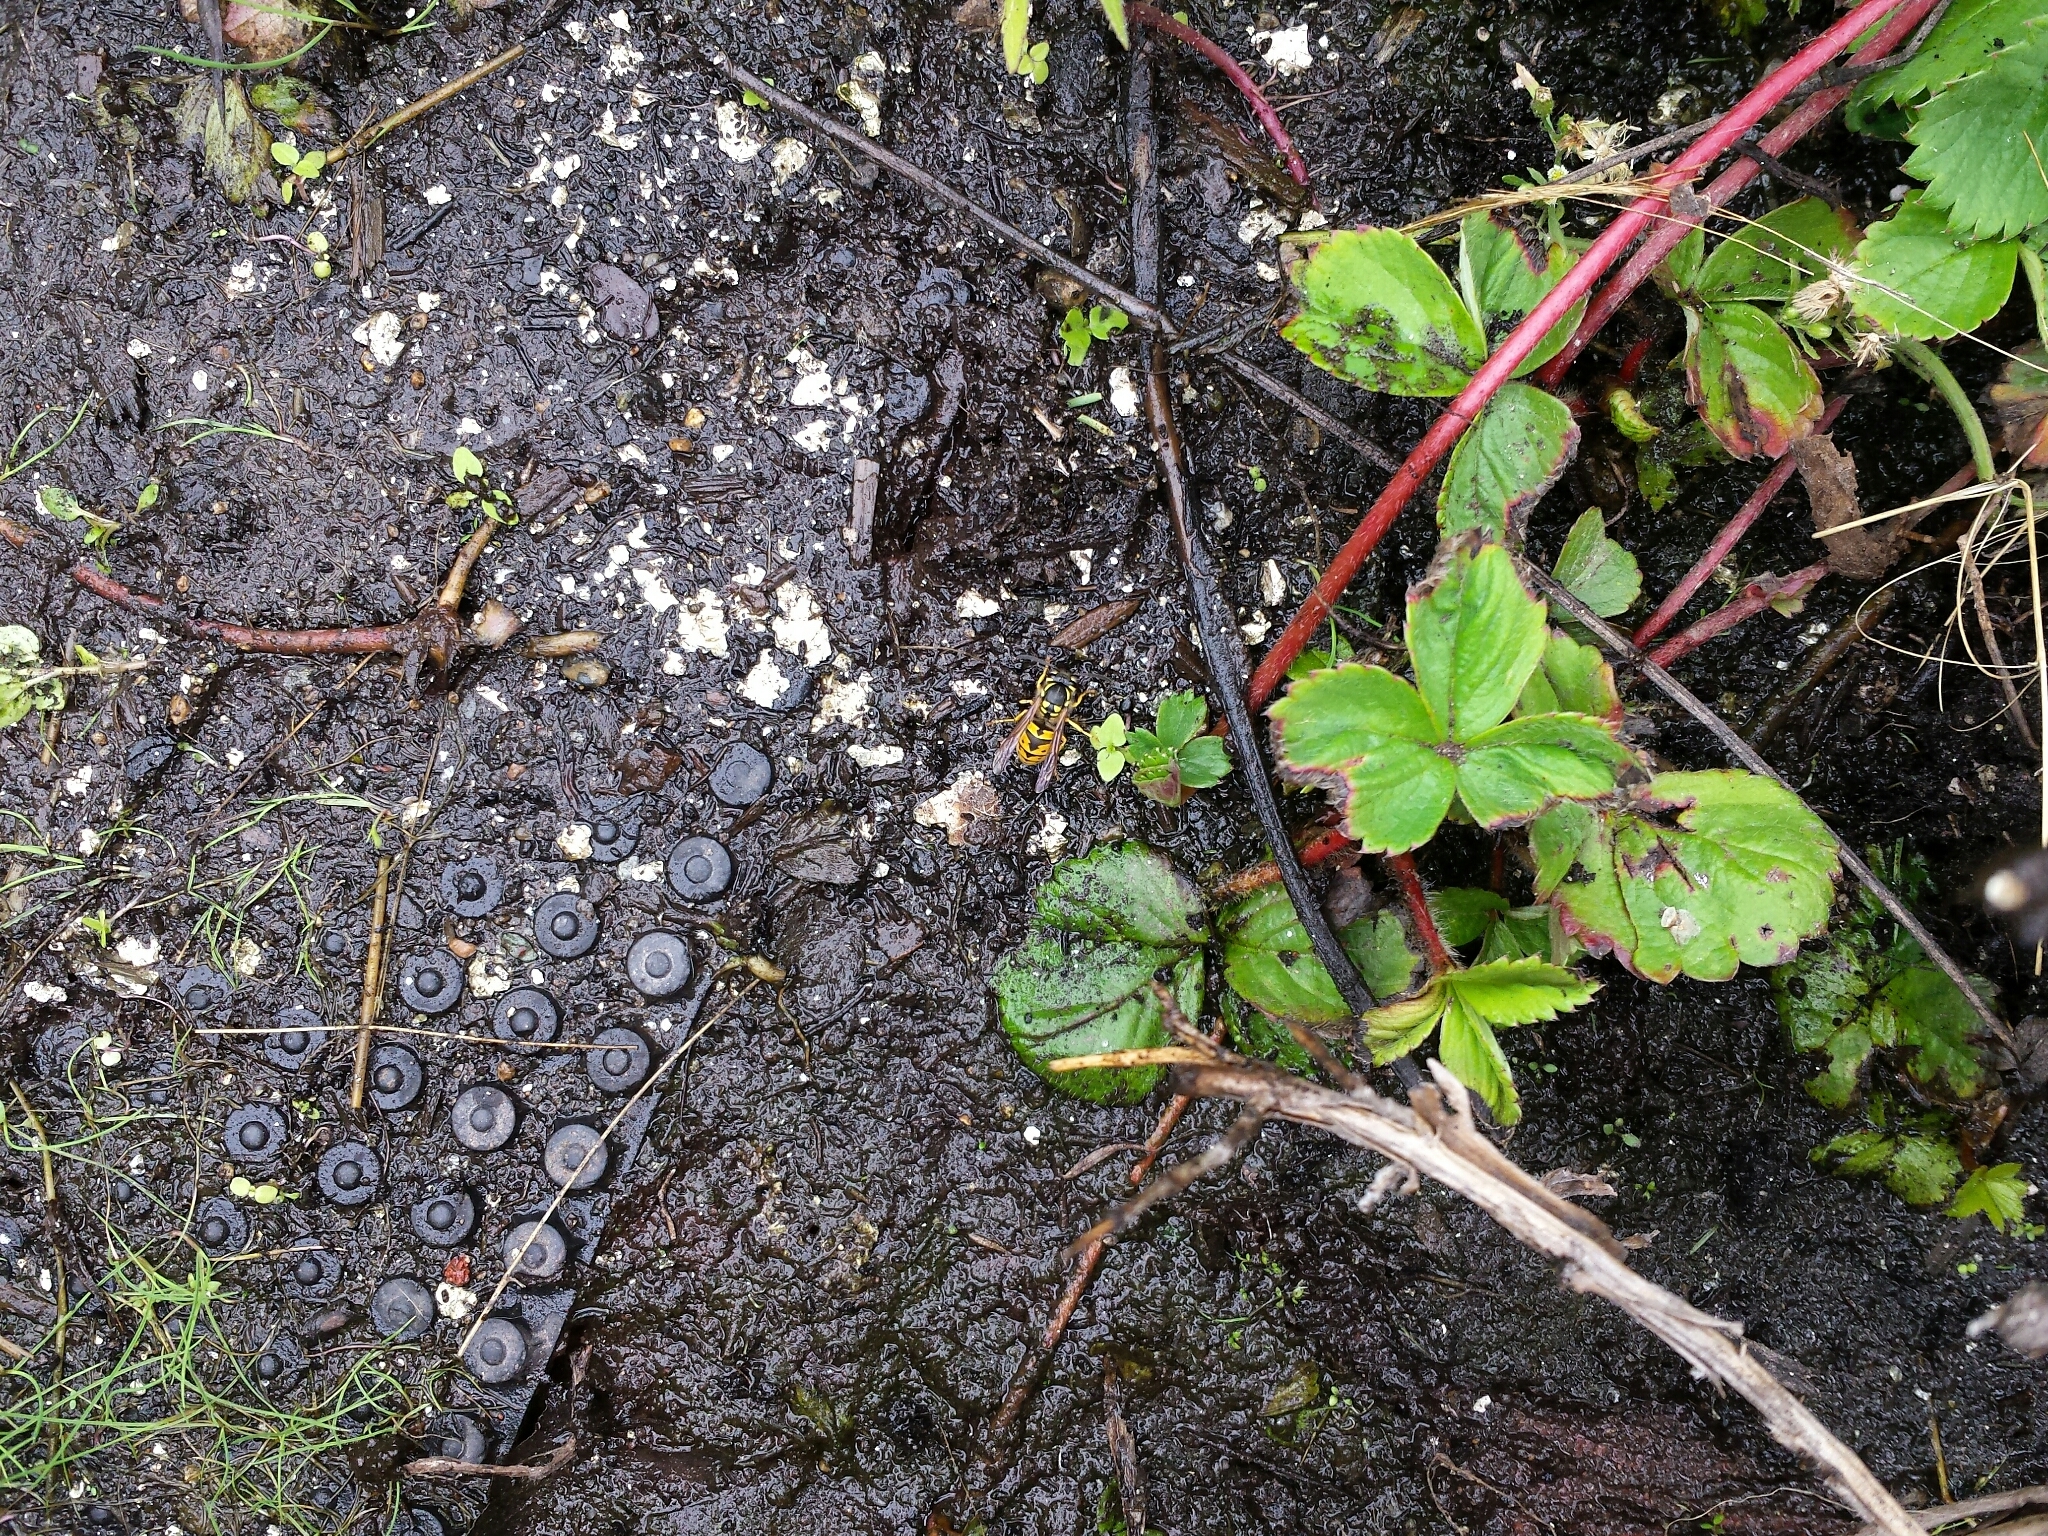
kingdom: Animalia
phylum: Arthropoda
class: Insecta
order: Hymenoptera
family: Vespidae
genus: Vespula
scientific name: Vespula germanica
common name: German wasp
